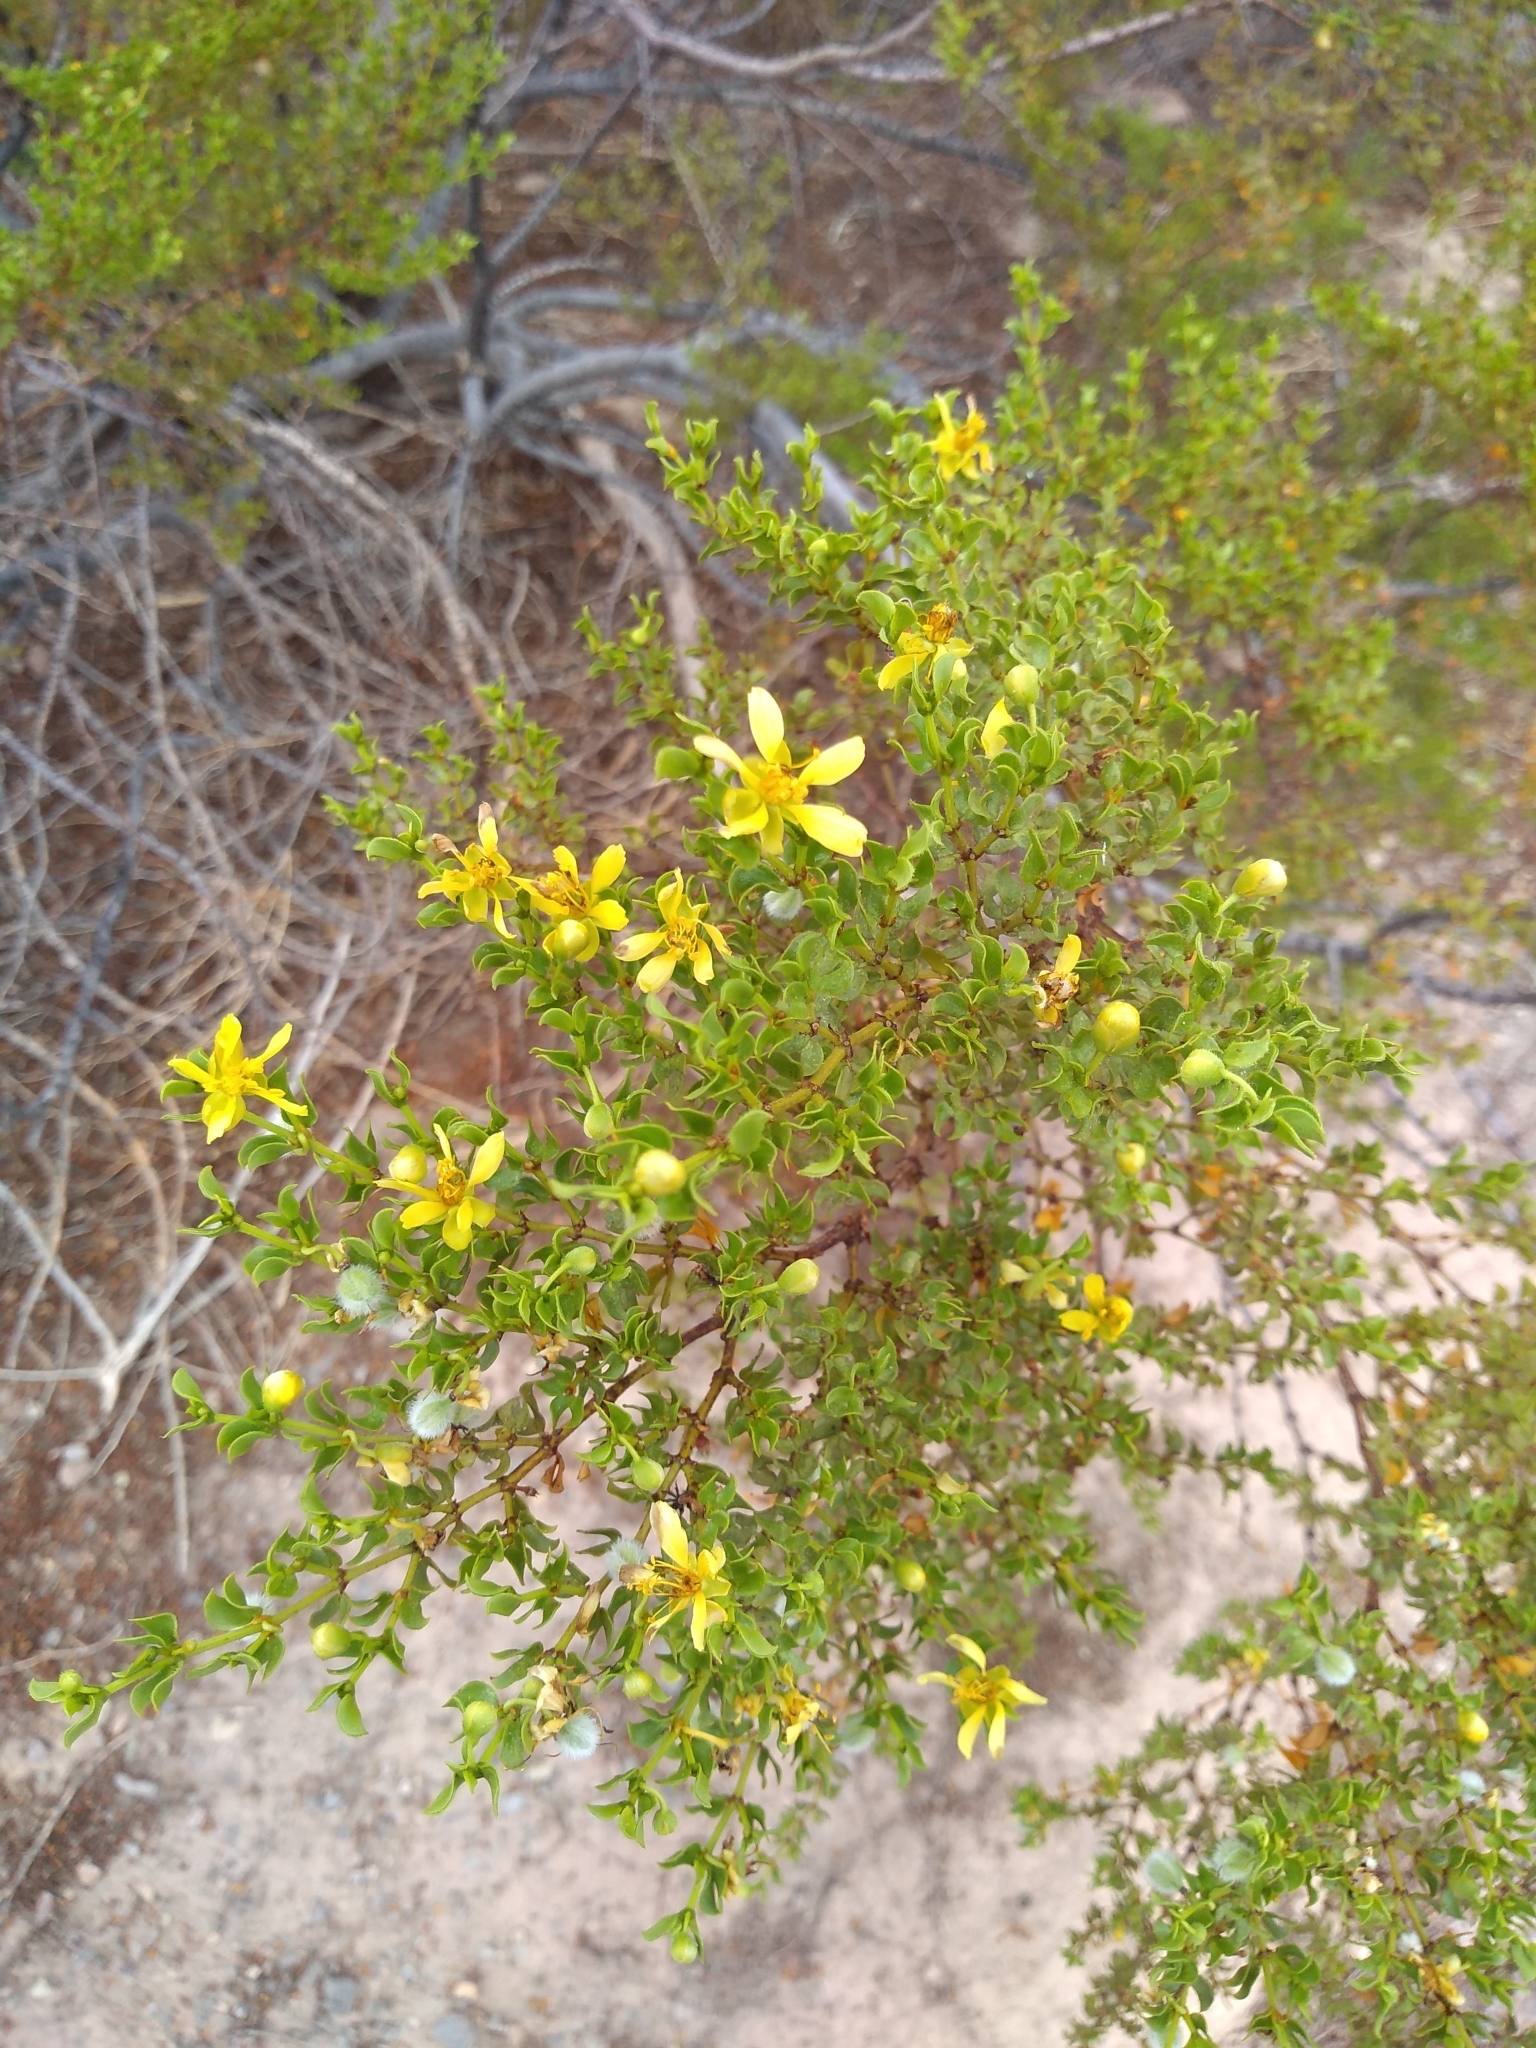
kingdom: Plantae
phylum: Tracheophyta
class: Magnoliopsida
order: Zygophyllales
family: Zygophyllaceae
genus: Larrea
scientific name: Larrea tridentata
